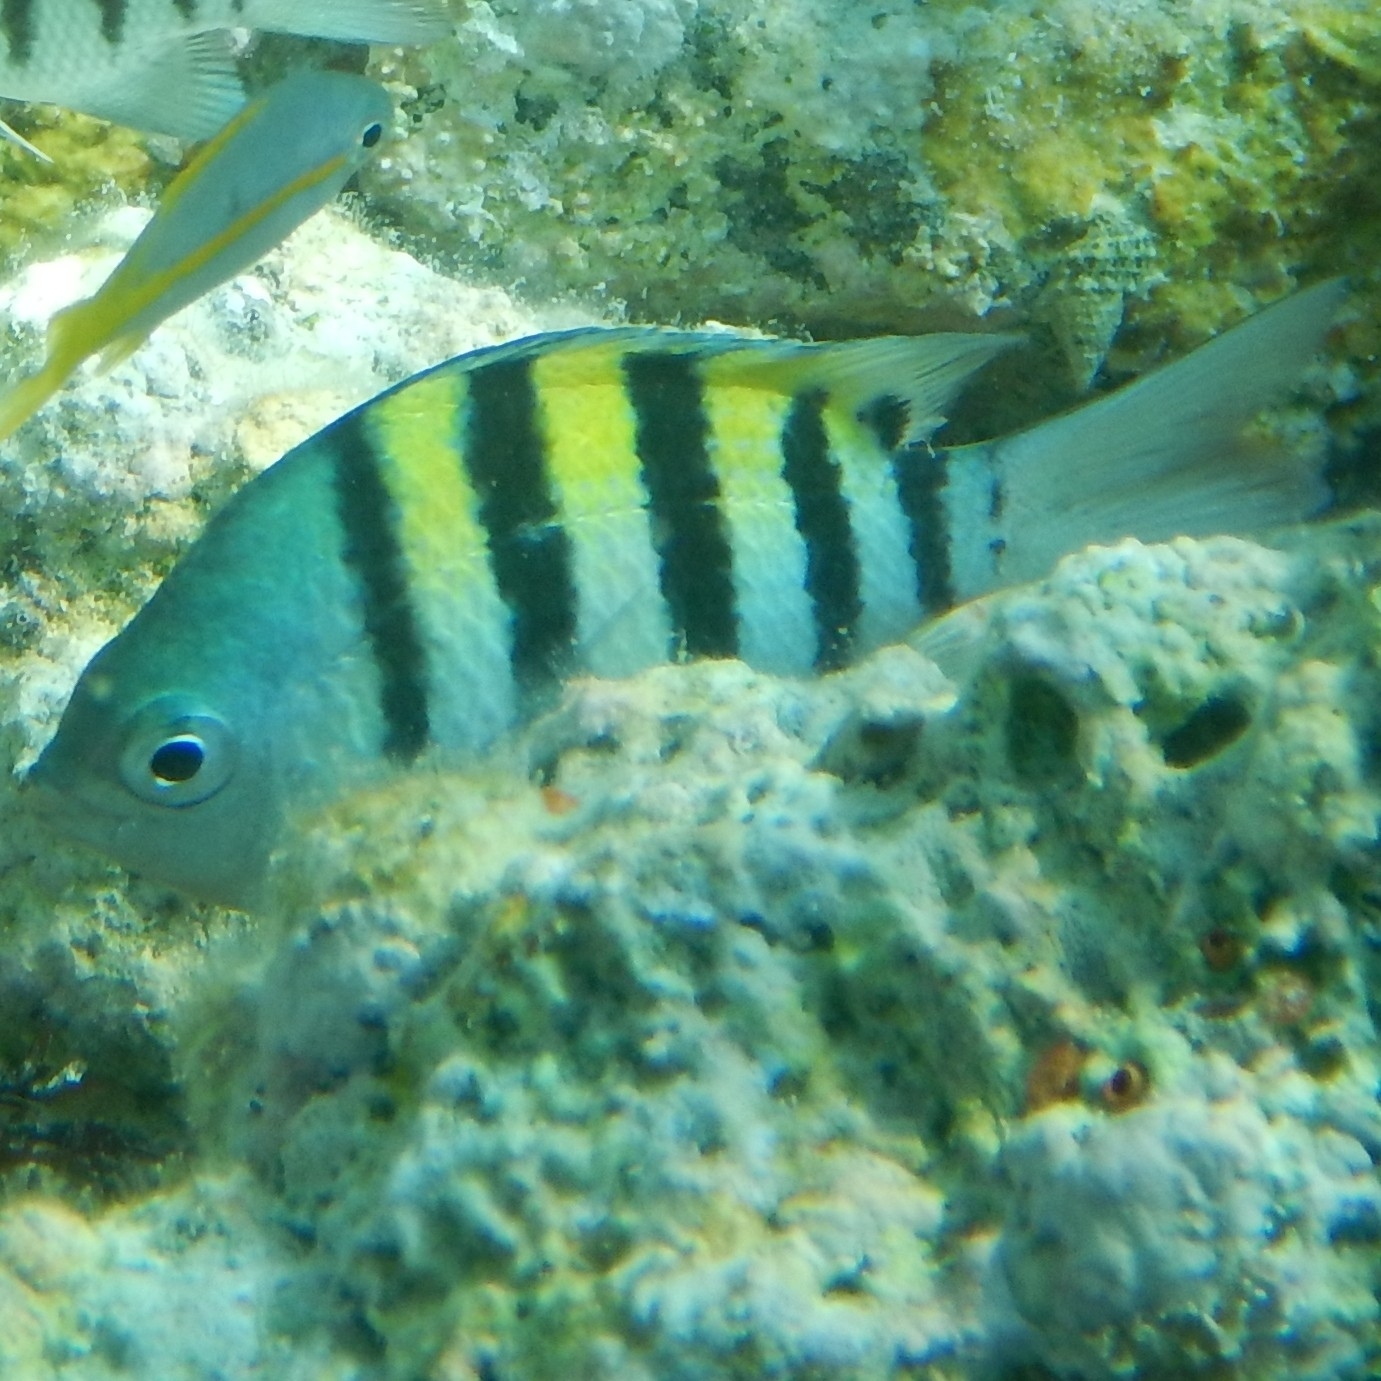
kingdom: Animalia
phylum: Chordata
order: Perciformes
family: Pomacentridae
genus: Abudefduf
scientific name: Abudefduf saxatilis
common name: Sergeant major
